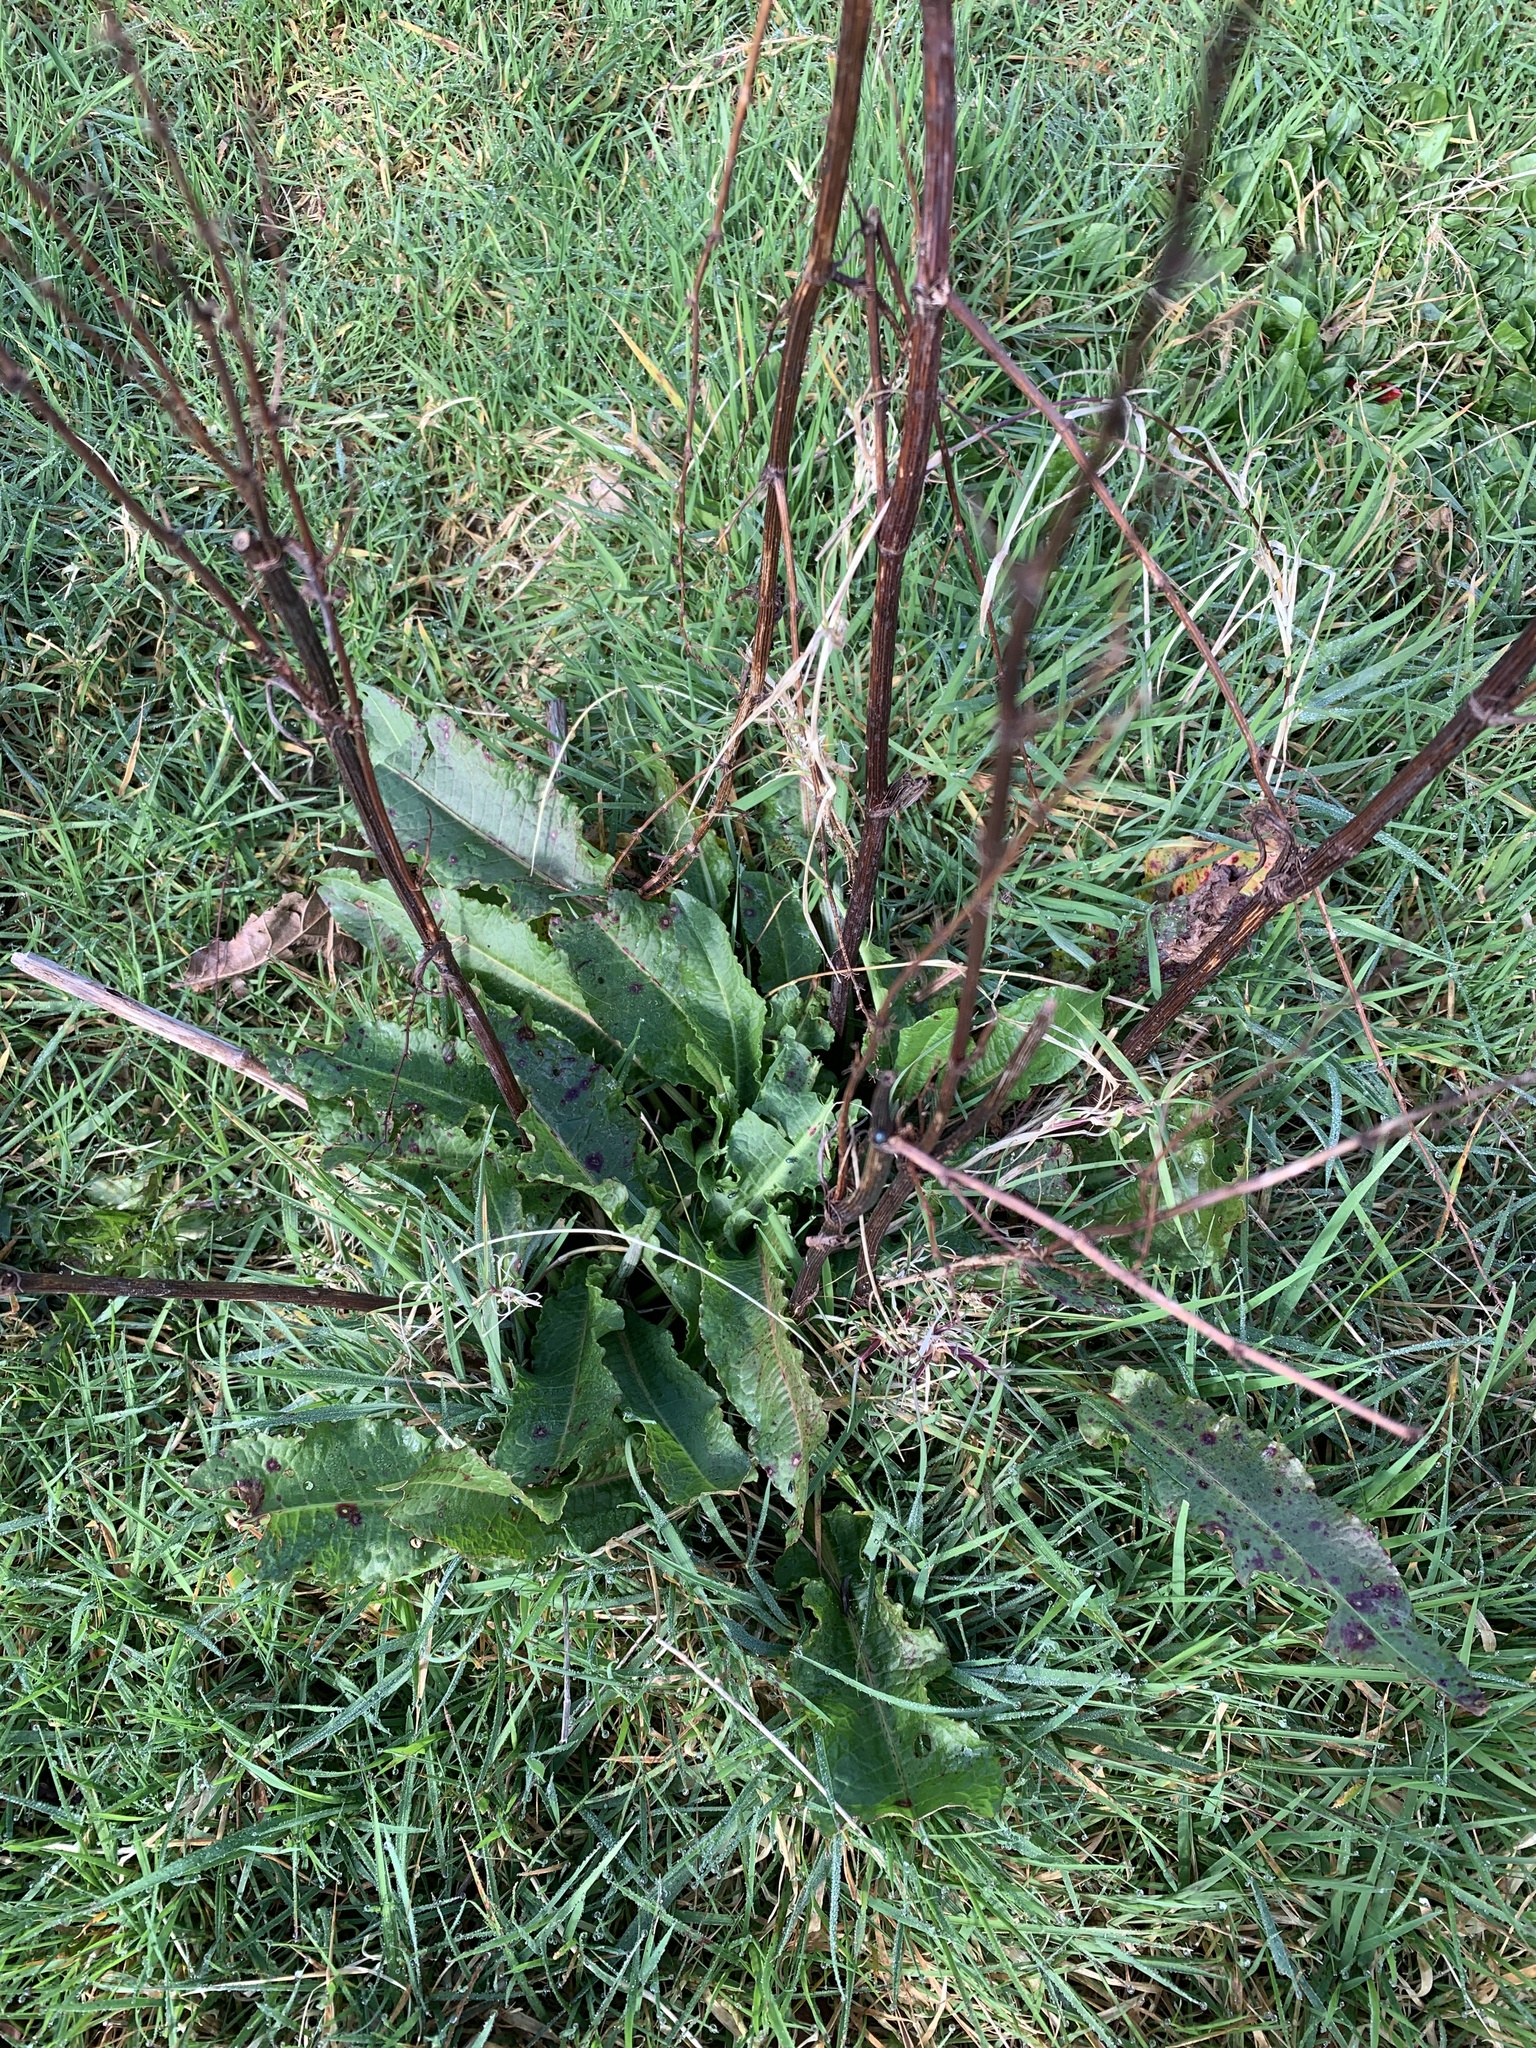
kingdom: Plantae
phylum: Tracheophyta
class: Magnoliopsida
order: Caryophyllales
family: Polygonaceae
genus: Rumex
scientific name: Rumex crispus
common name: Curled dock
